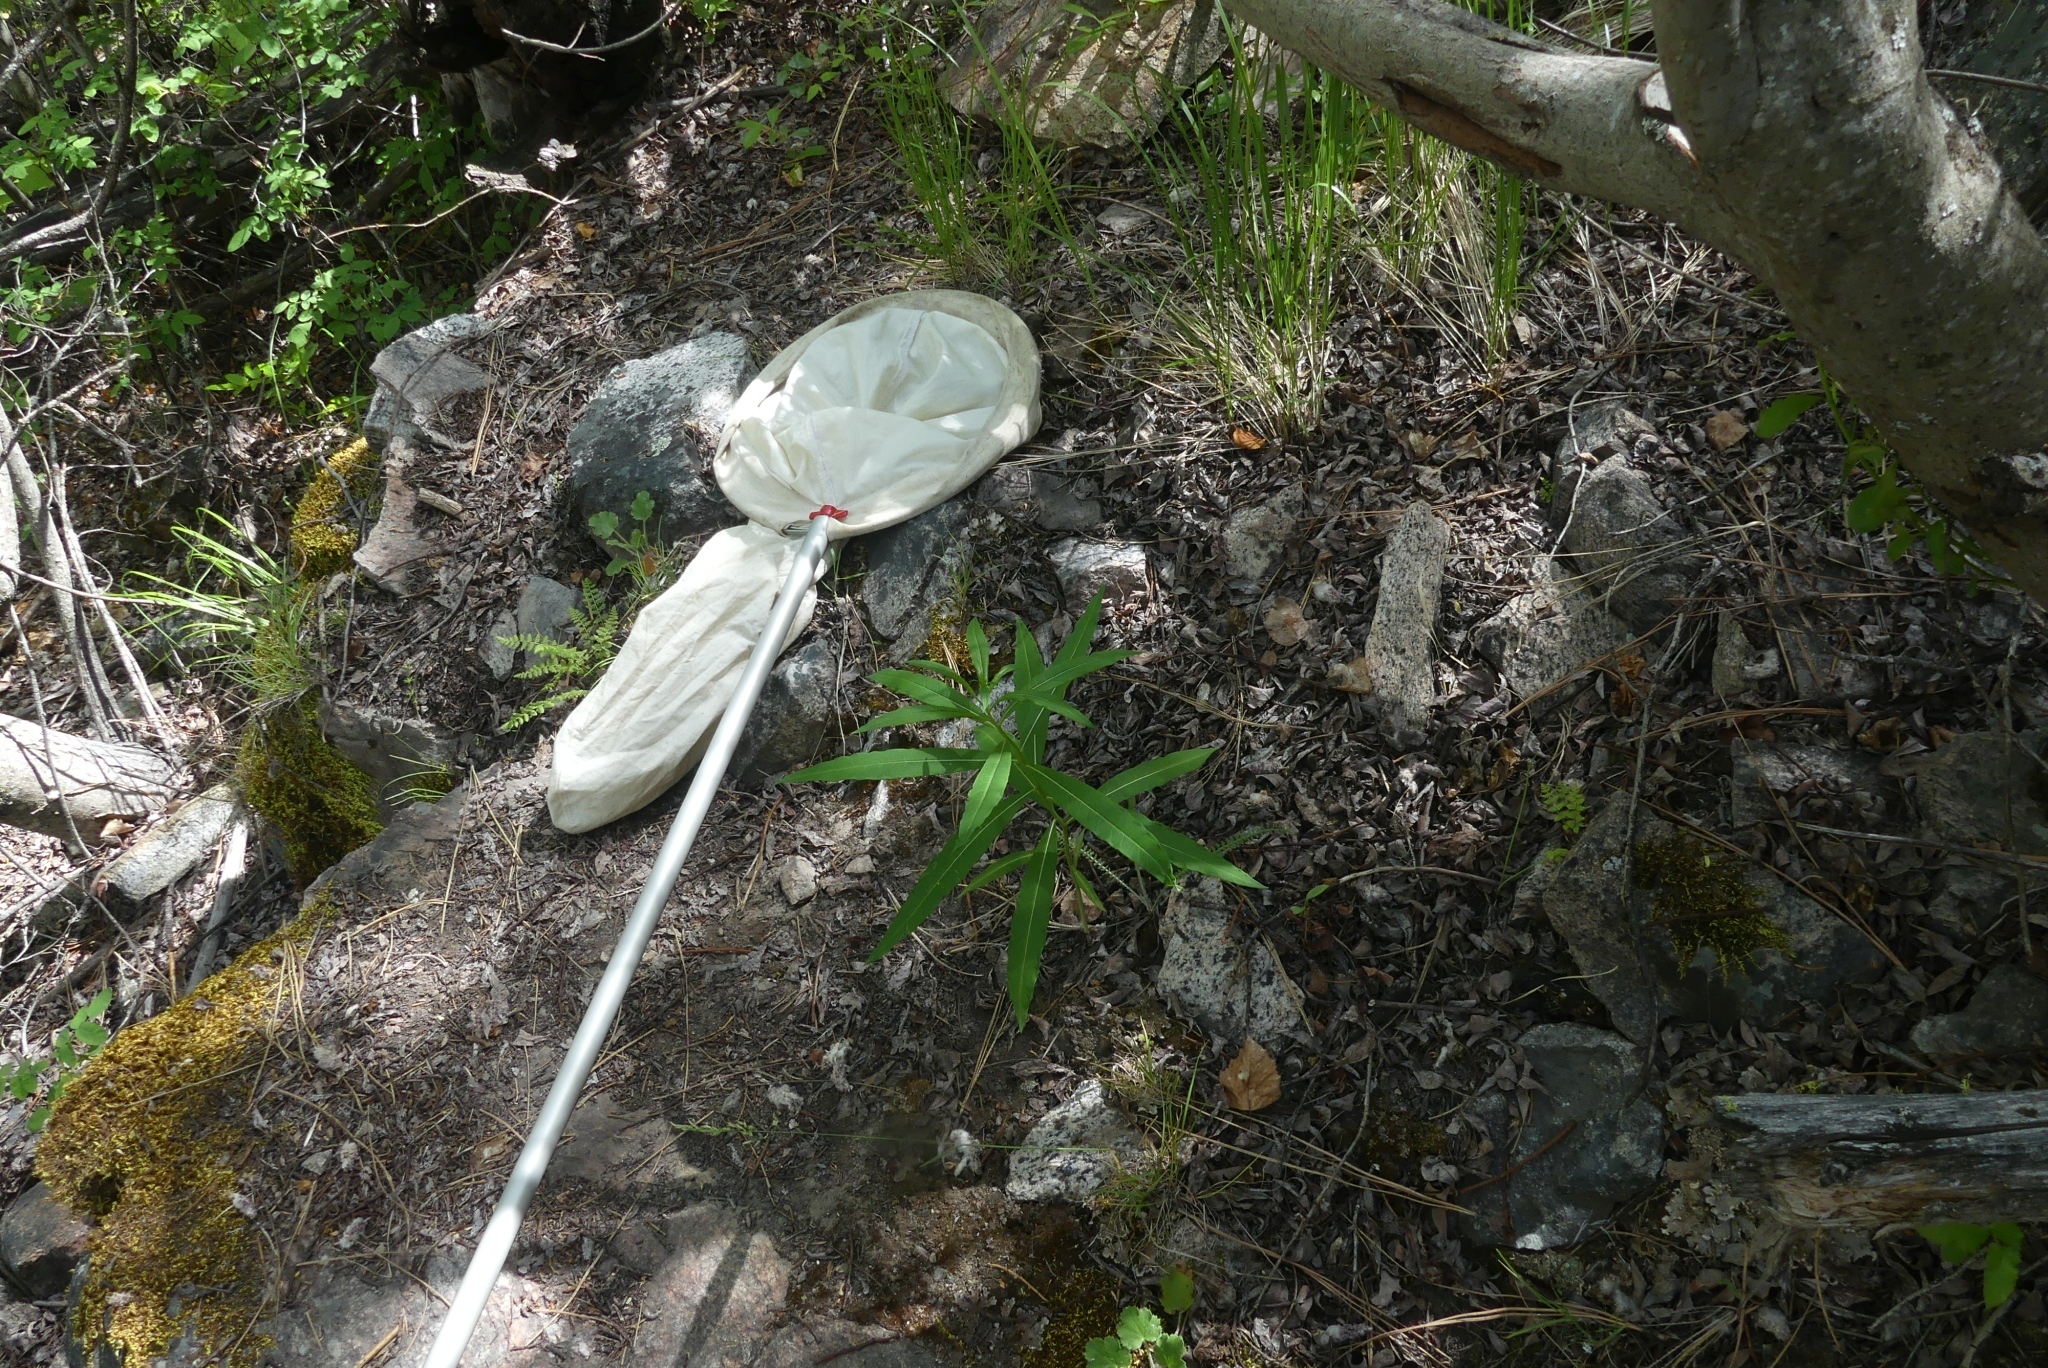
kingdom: Plantae
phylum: Tracheophyta
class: Magnoliopsida
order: Myrtales
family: Onagraceae
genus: Chamaenerion
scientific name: Chamaenerion angustifolium
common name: Fireweed
